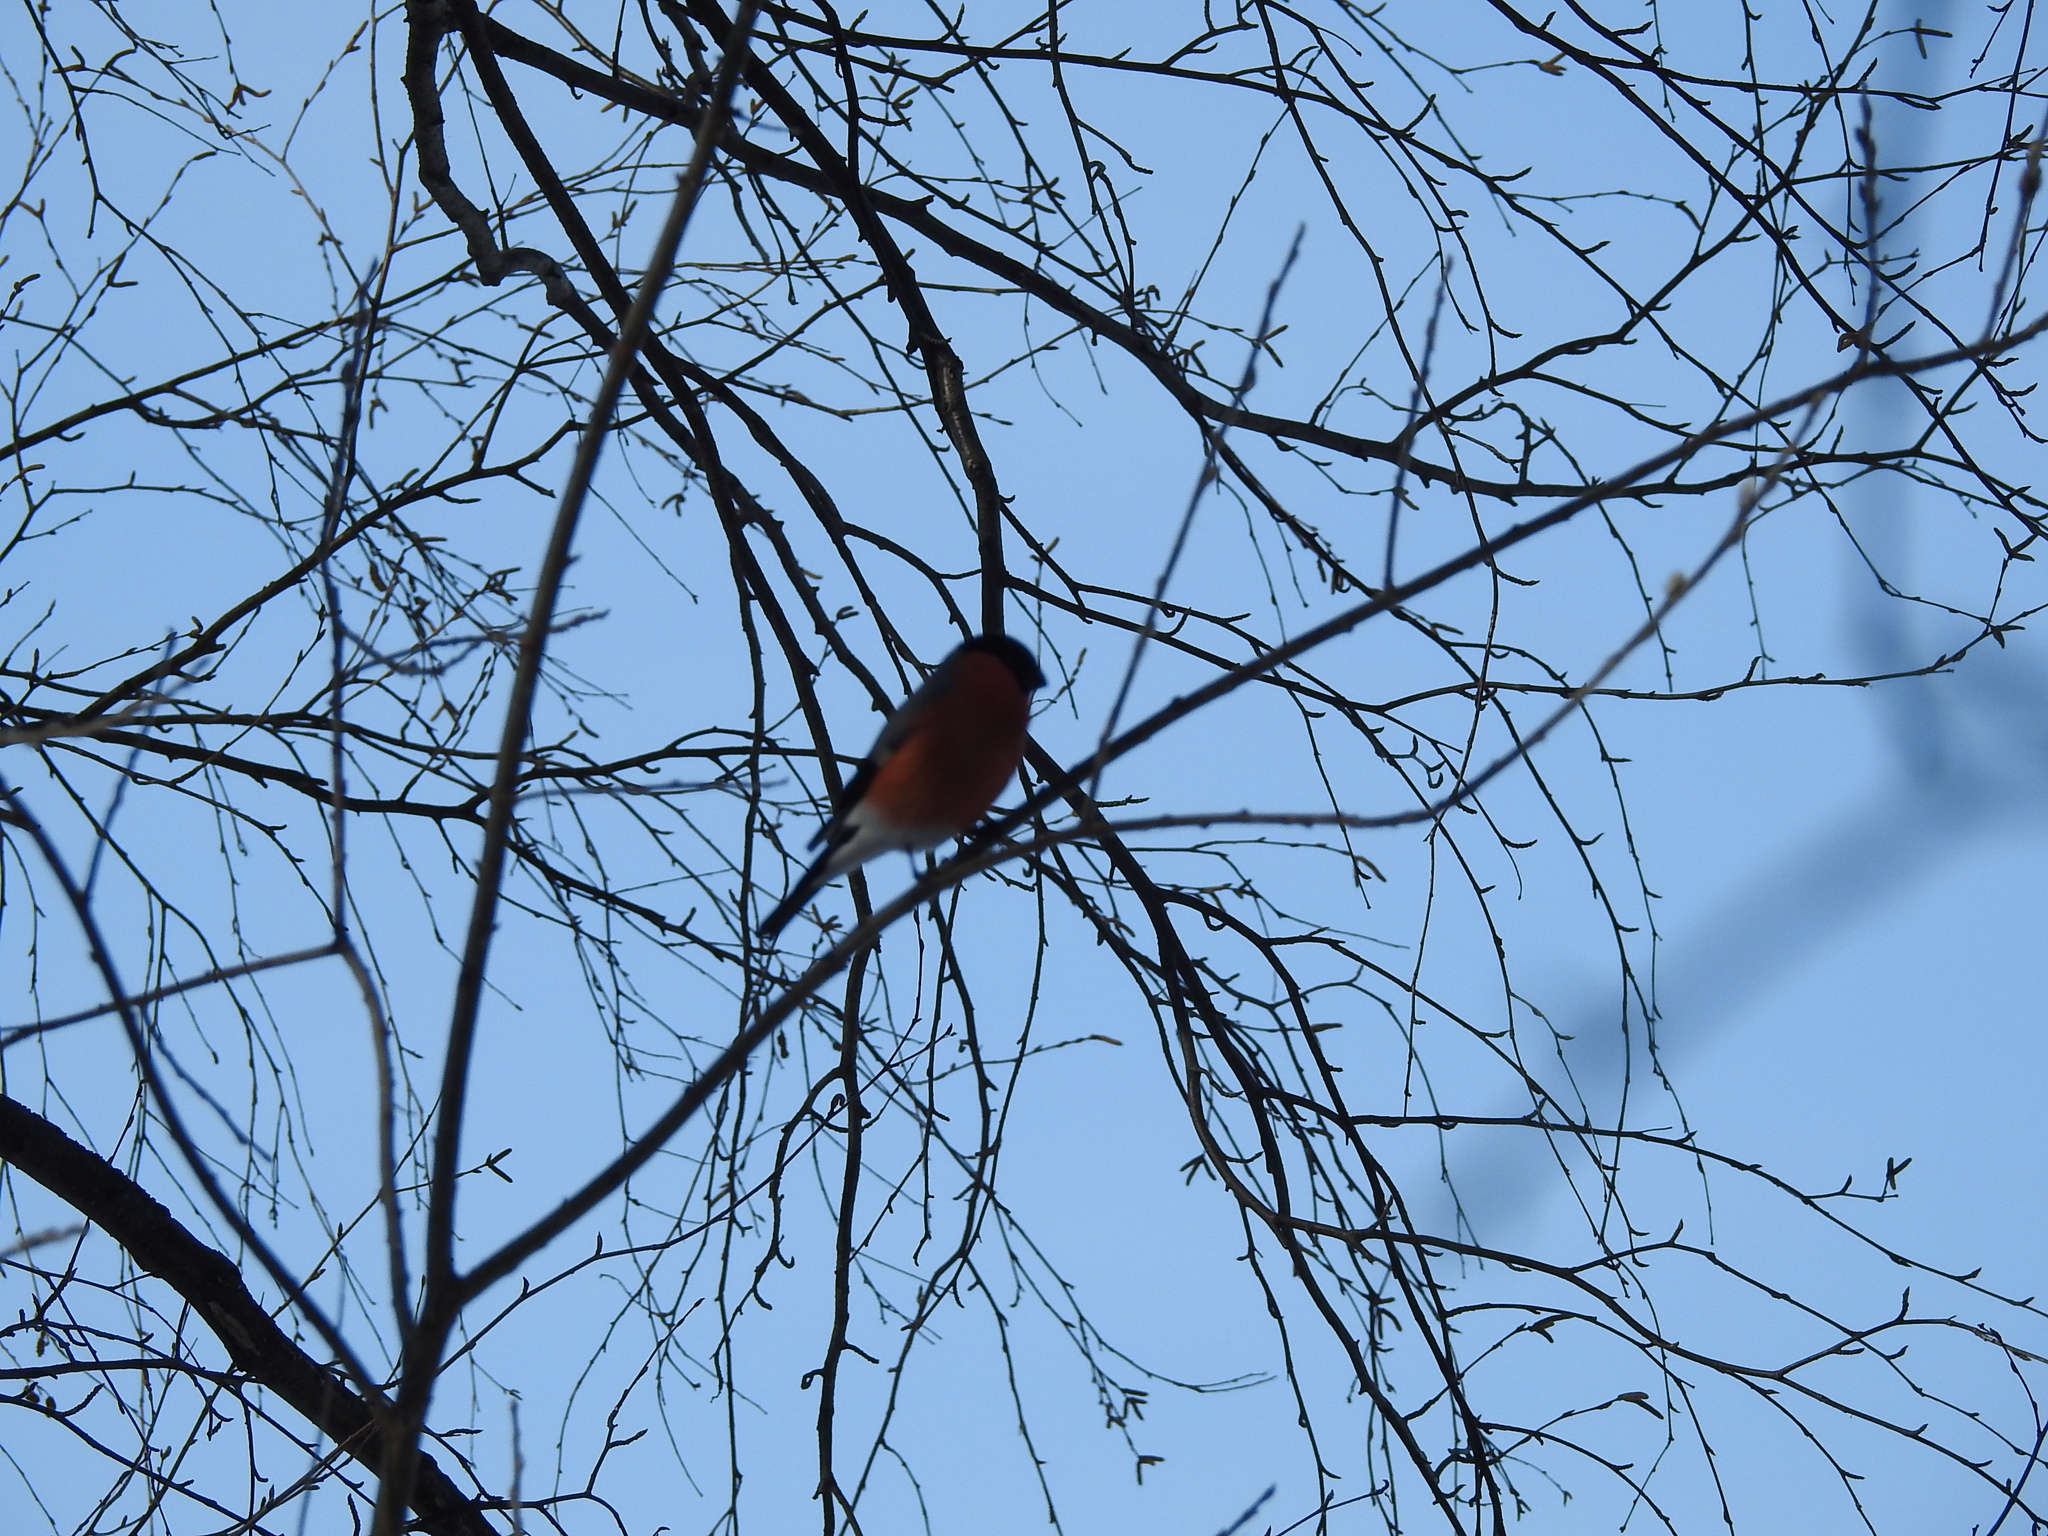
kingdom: Animalia
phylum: Chordata
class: Aves
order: Passeriformes
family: Fringillidae
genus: Pyrrhula
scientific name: Pyrrhula pyrrhula
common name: Eurasian bullfinch
